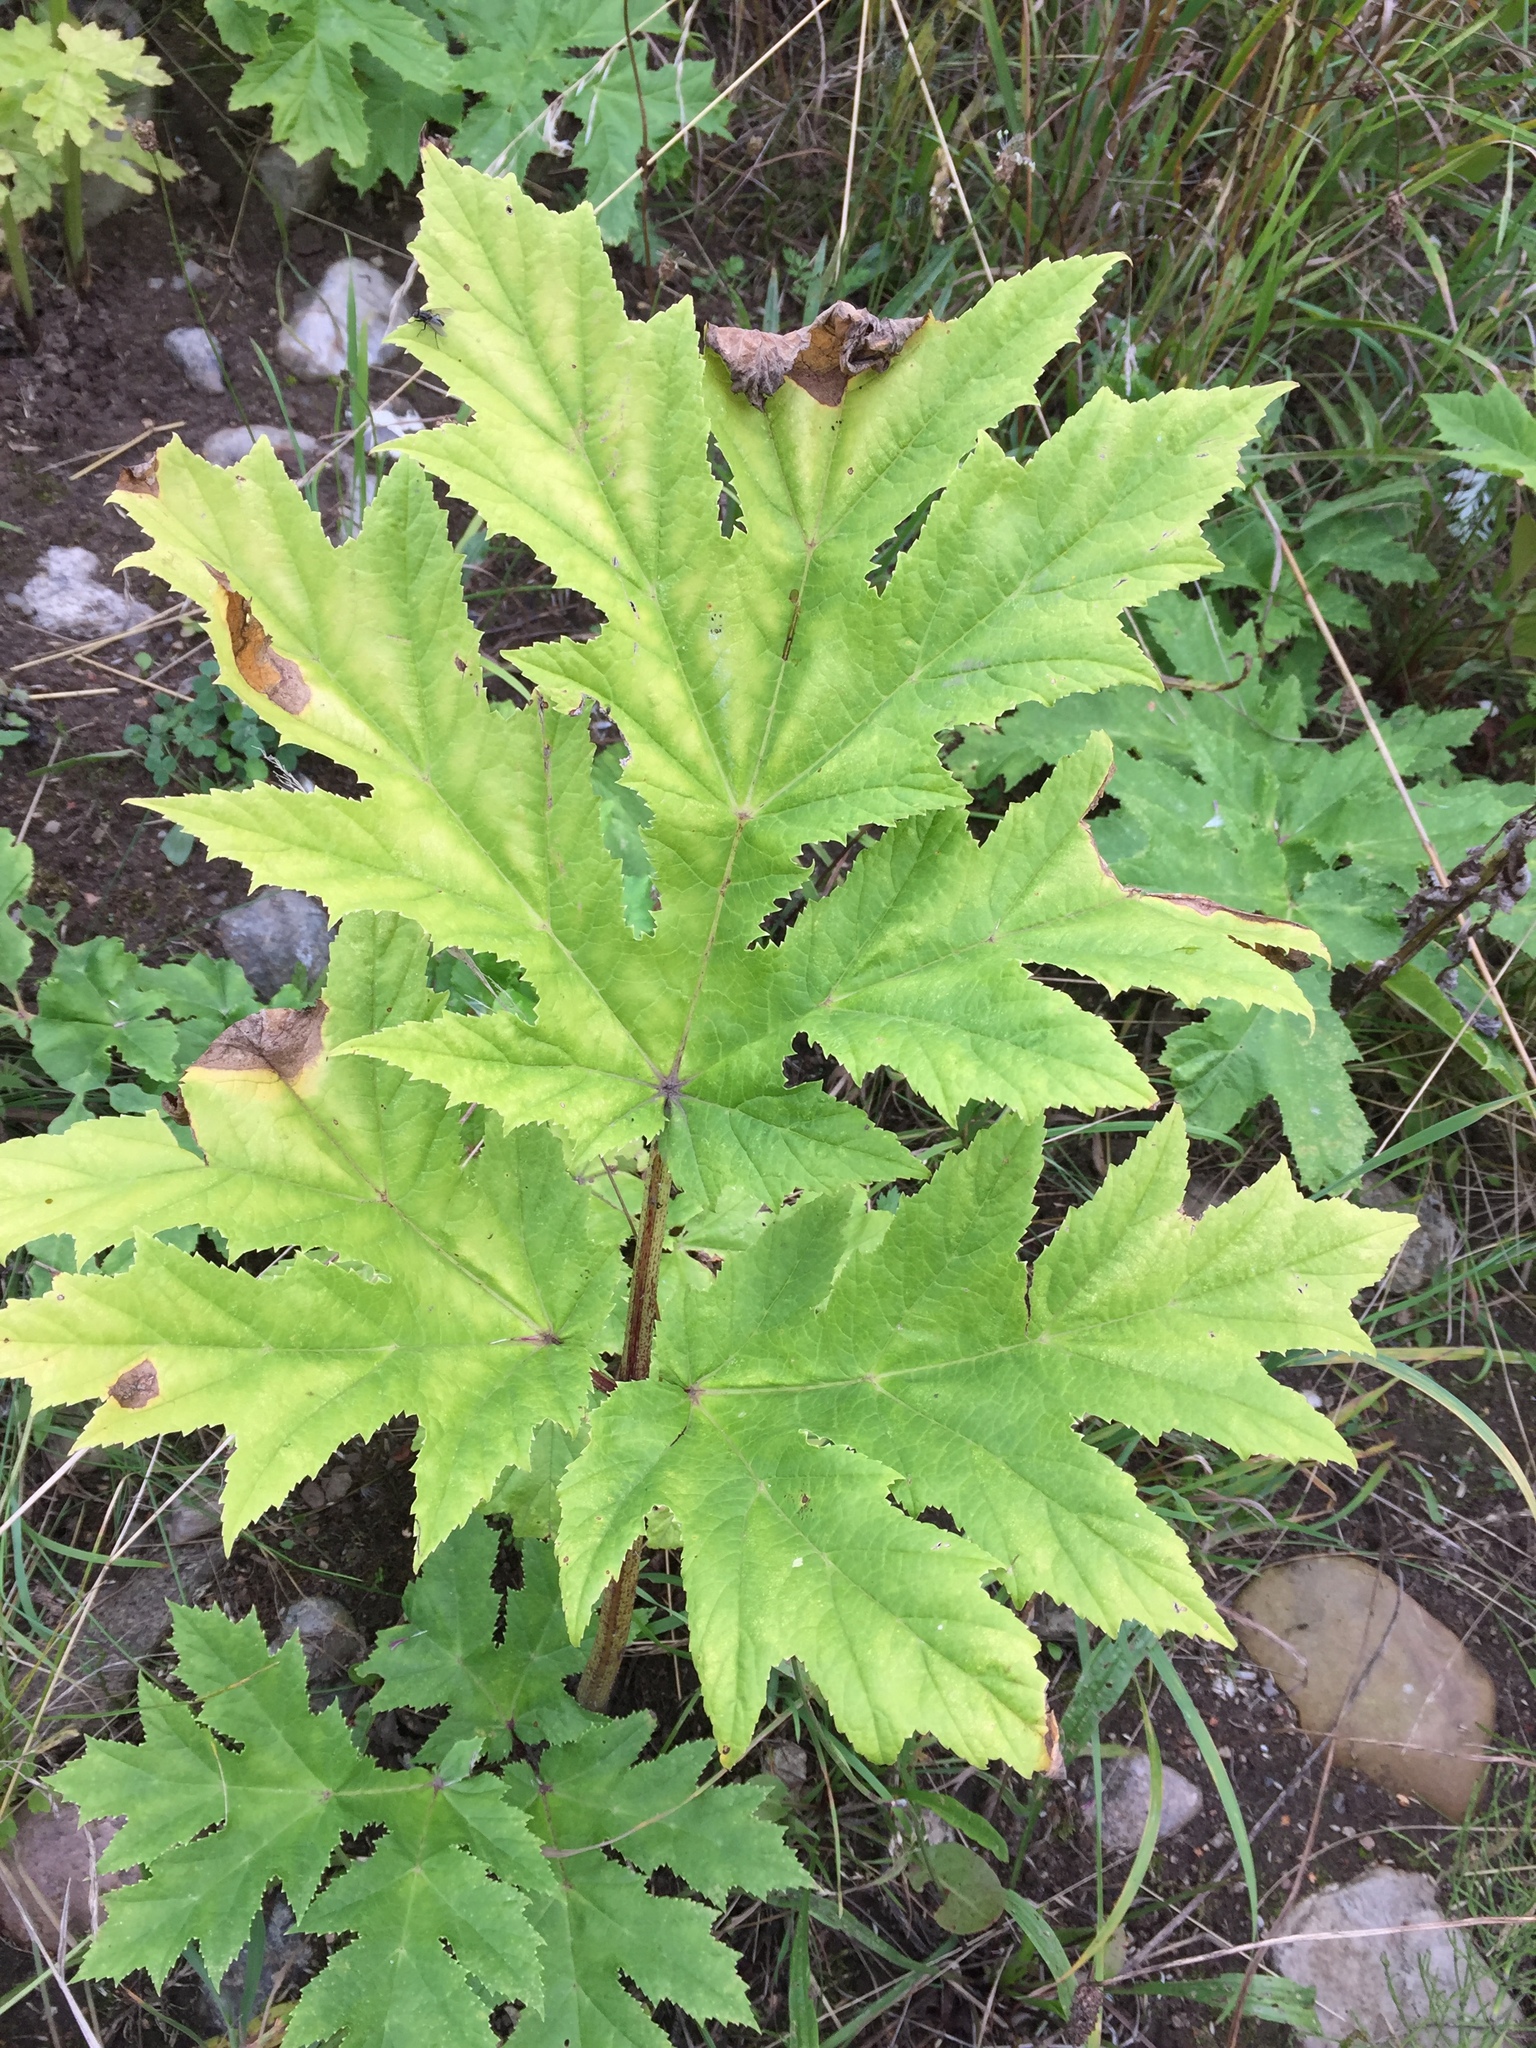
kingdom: Plantae
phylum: Tracheophyta
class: Magnoliopsida
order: Apiales
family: Apiaceae
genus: Heracleum
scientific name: Heracleum mantegazzianum
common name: Giant hogweed
